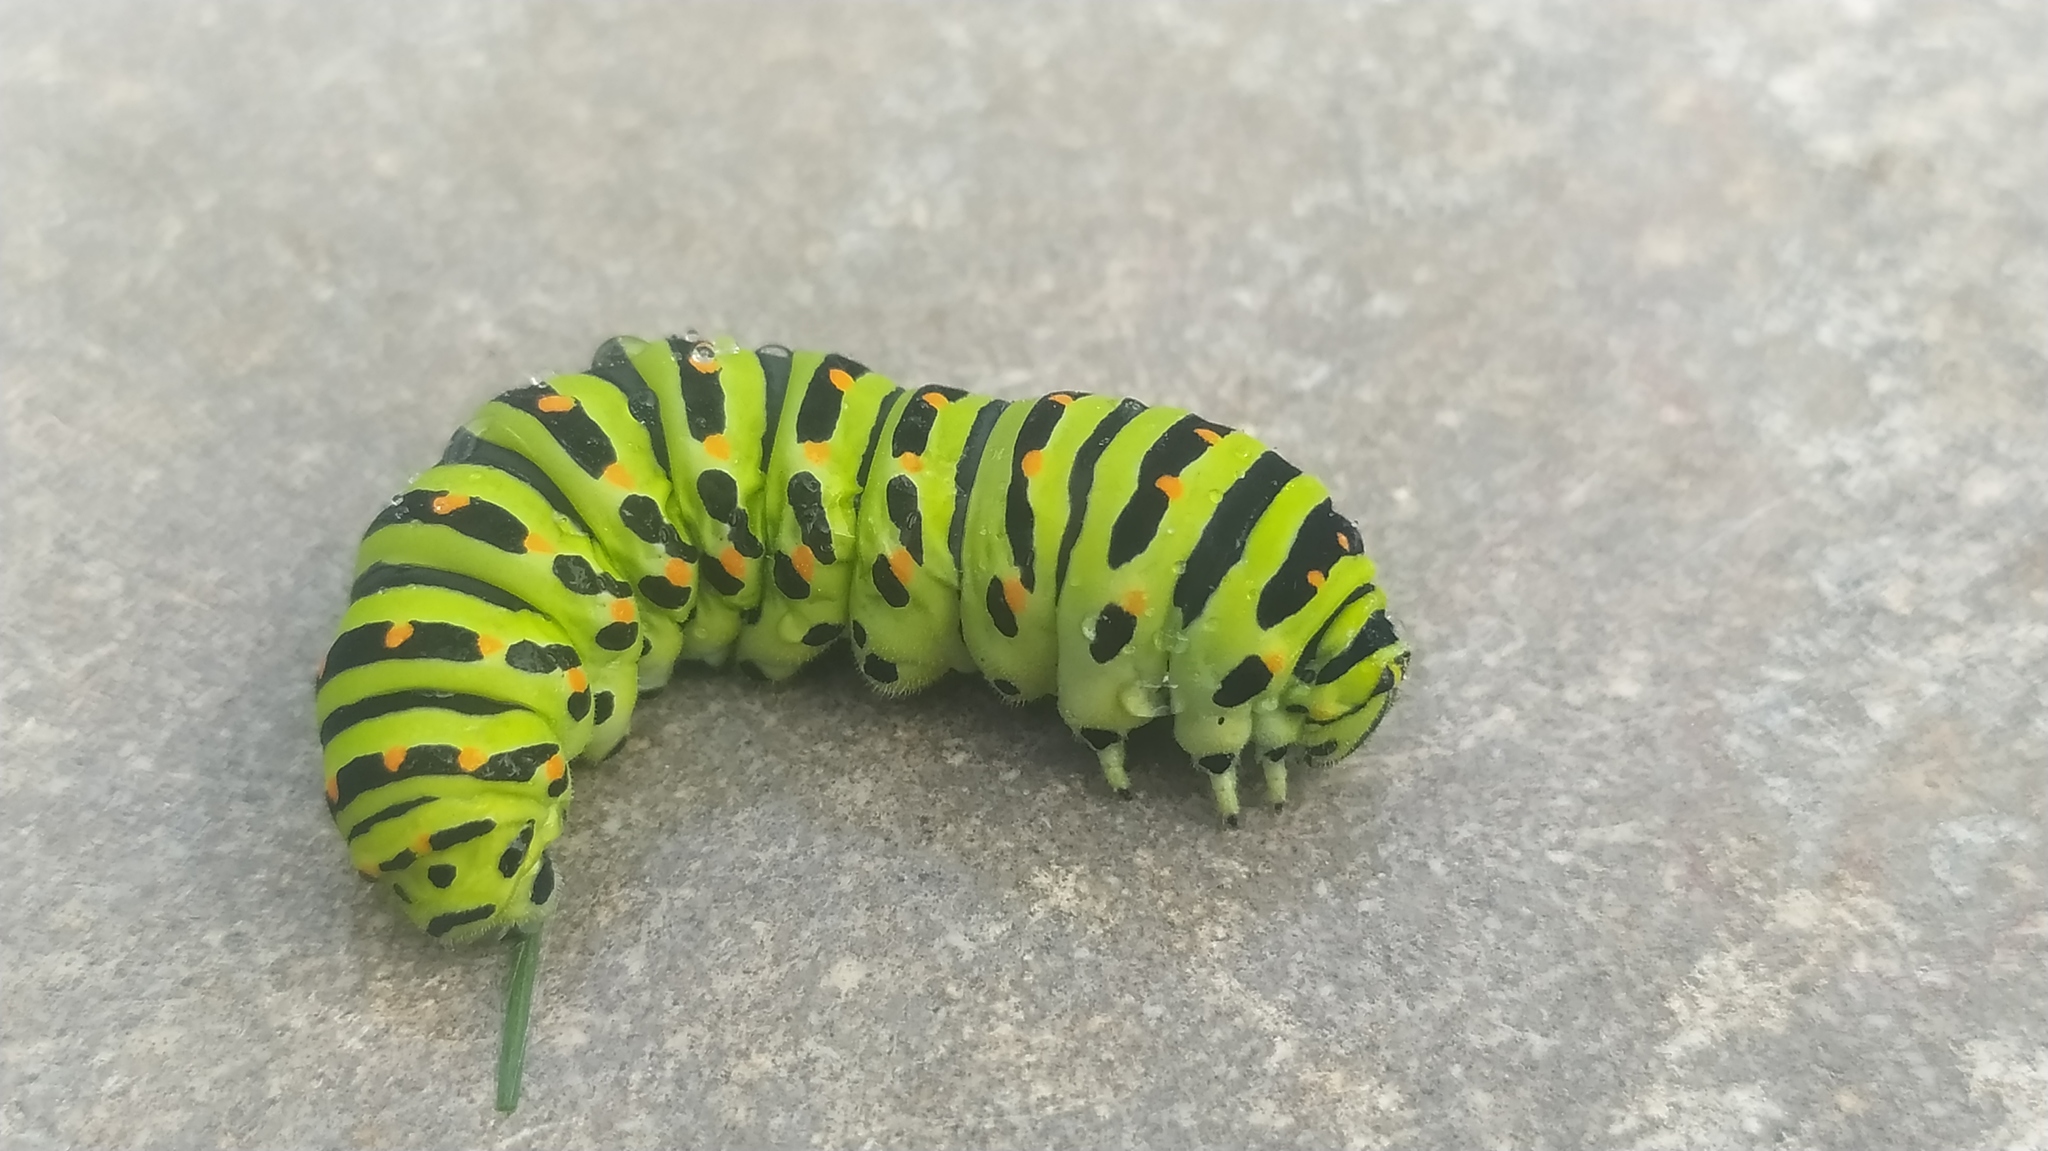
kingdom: Animalia
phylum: Arthropoda
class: Insecta
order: Lepidoptera
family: Papilionidae
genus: Papilio
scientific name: Papilio machaon
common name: Swallowtail
